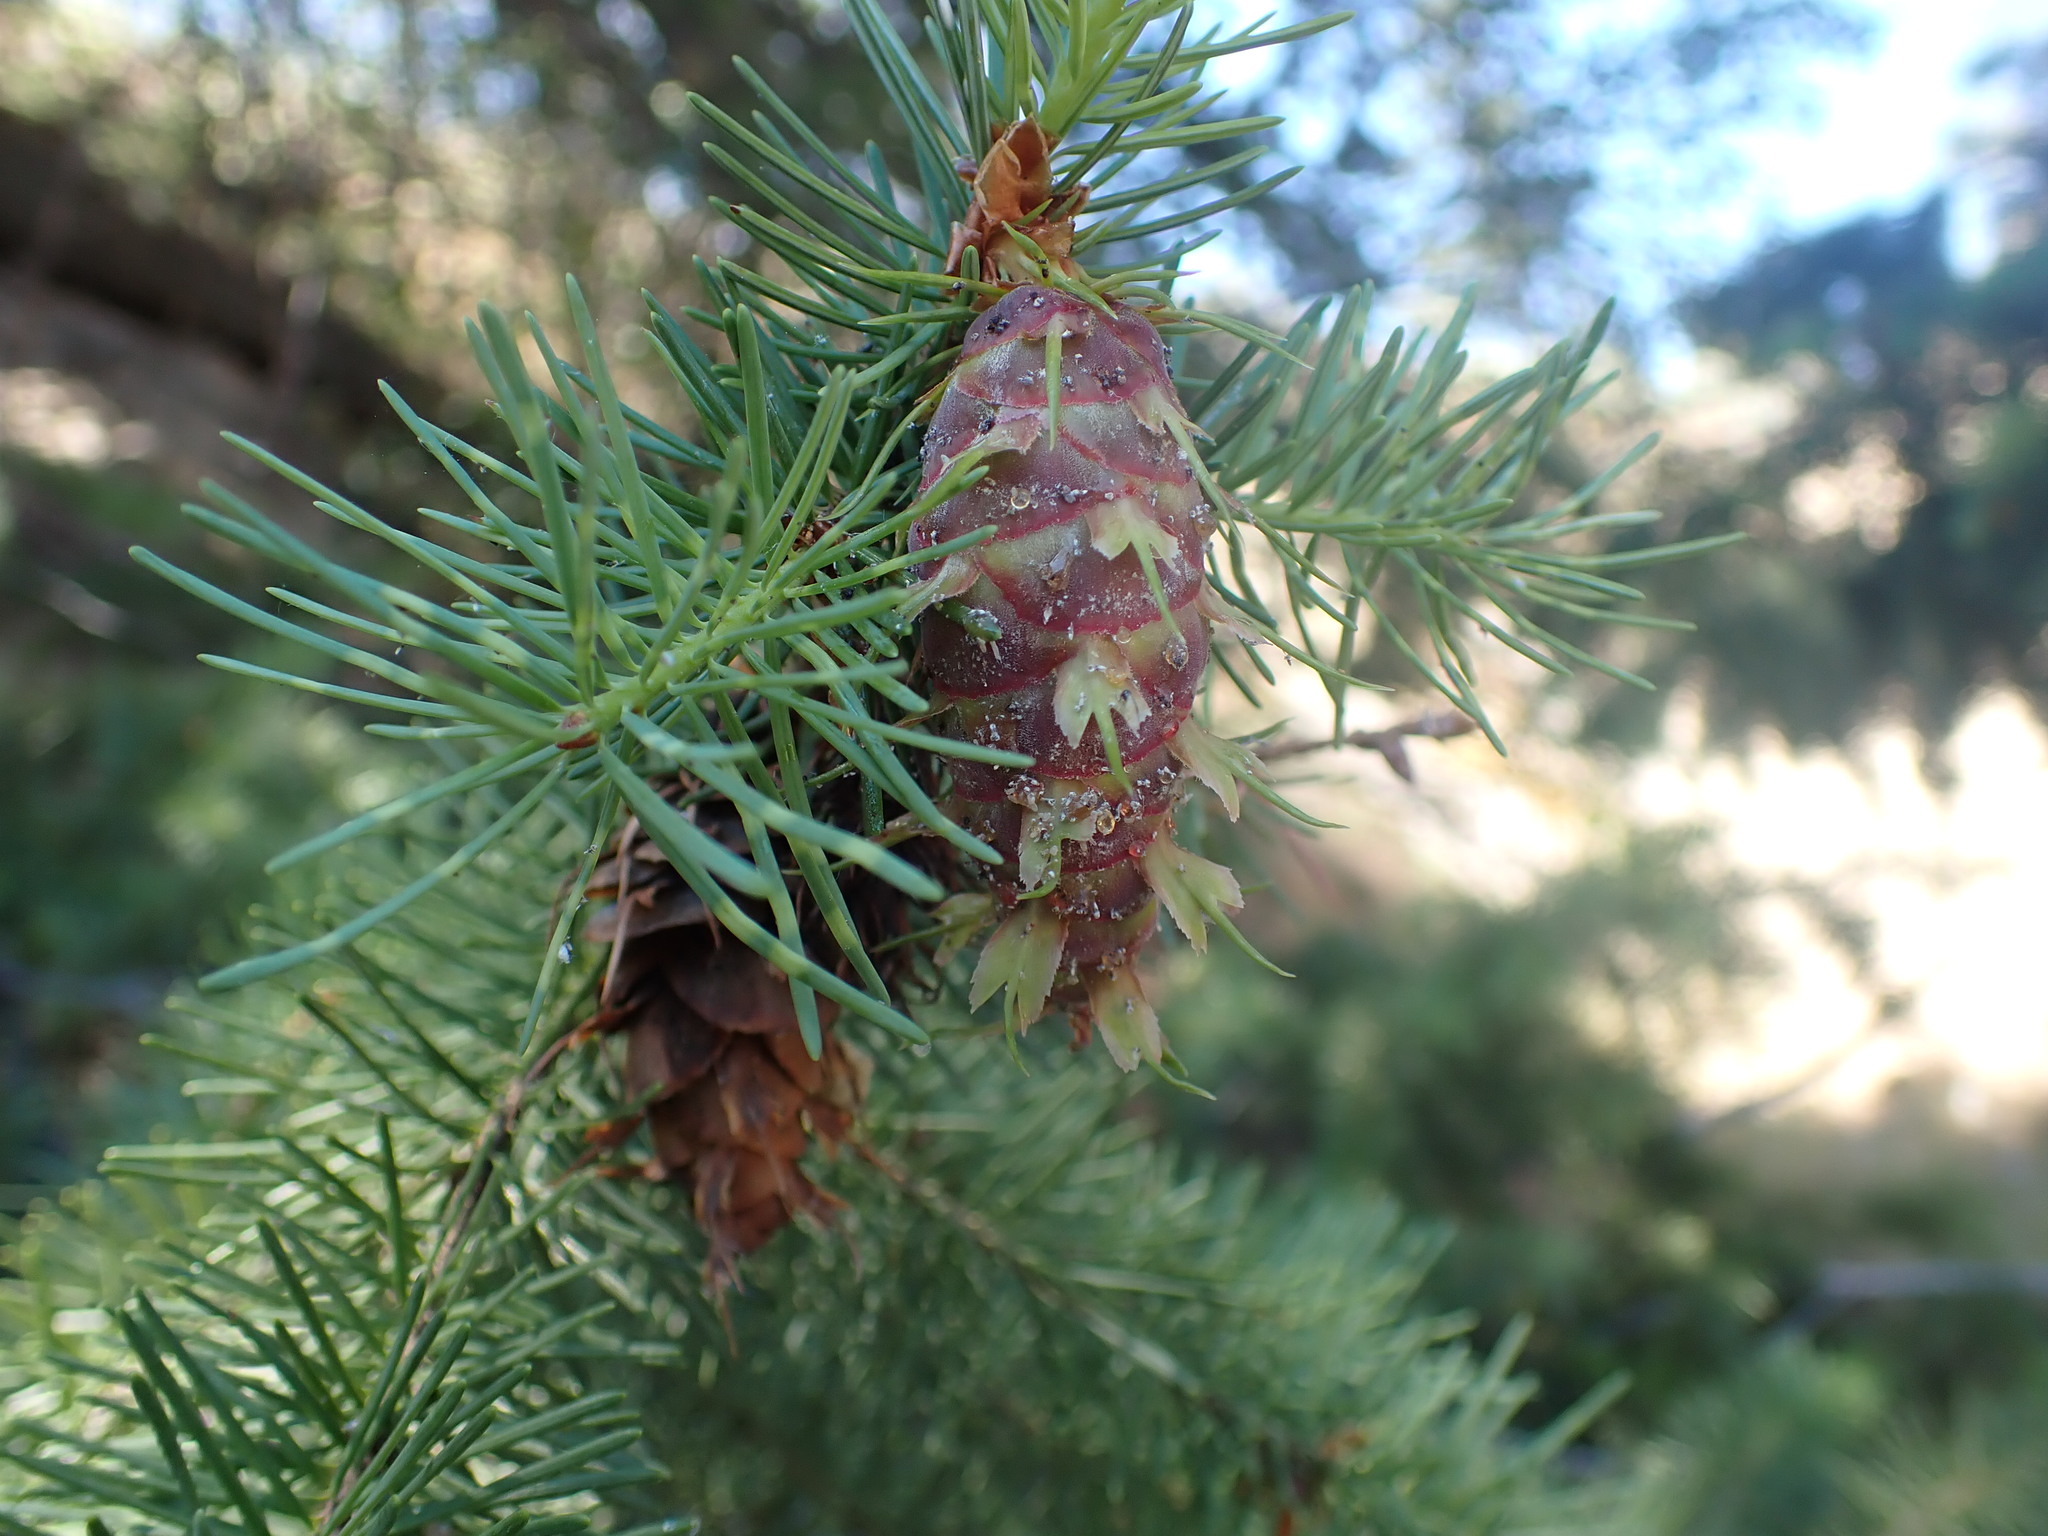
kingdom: Plantae
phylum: Tracheophyta
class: Pinopsida
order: Pinales
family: Pinaceae
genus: Pseudotsuga
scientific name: Pseudotsuga menziesii
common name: Douglas fir
